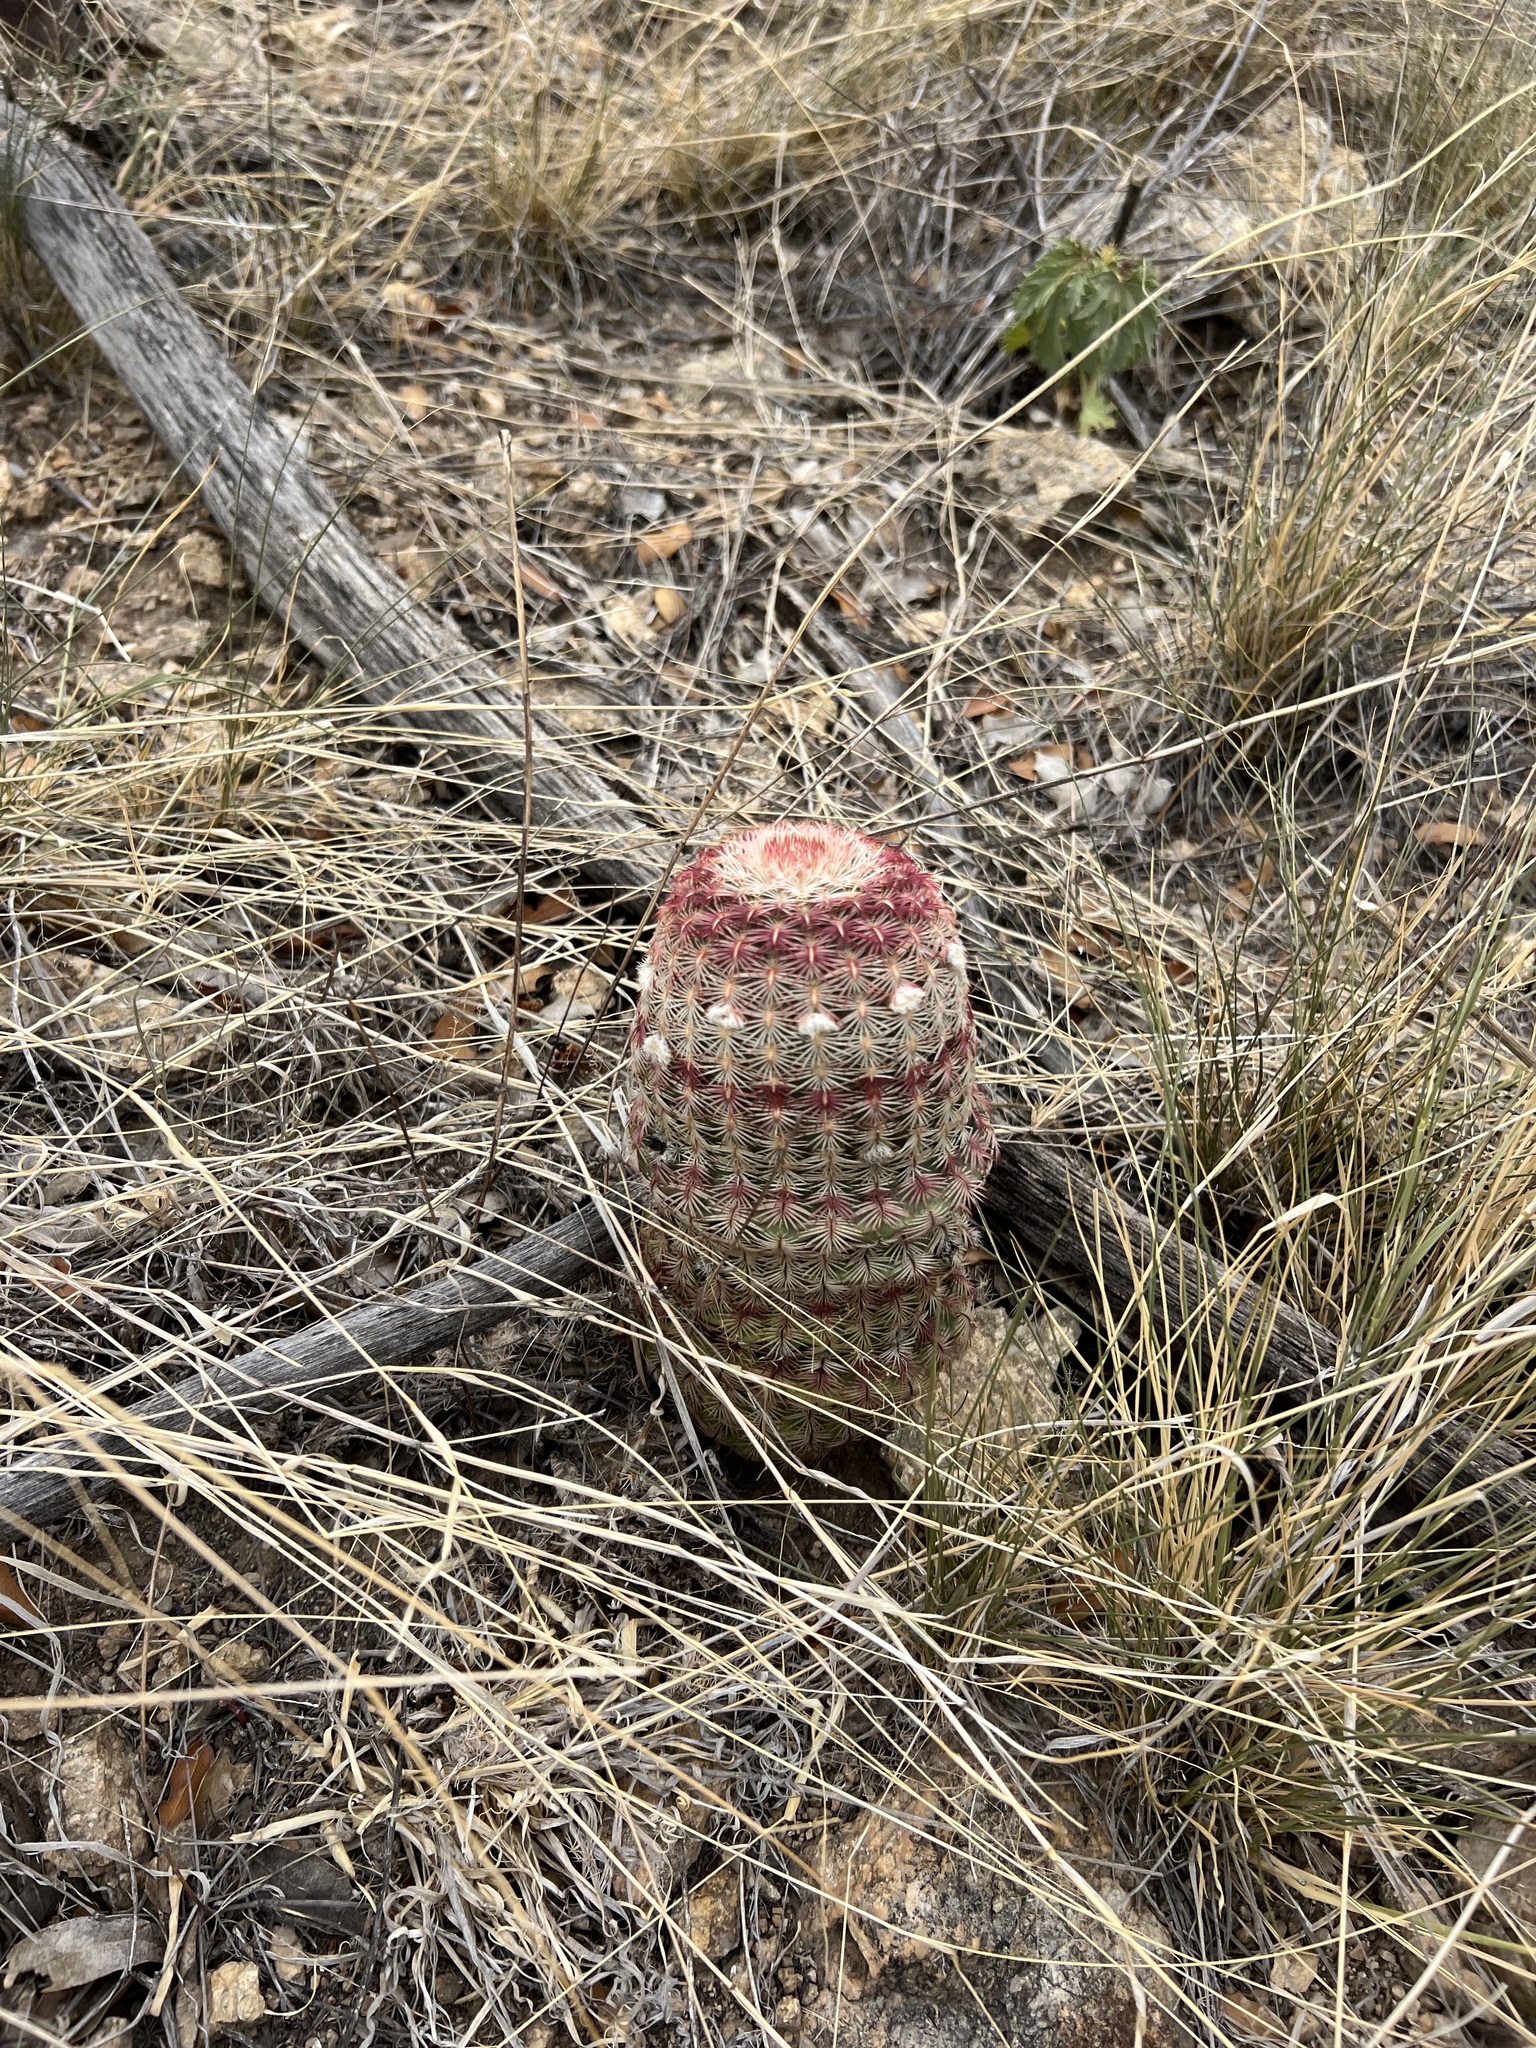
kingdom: Plantae
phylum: Tracheophyta
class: Magnoliopsida
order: Caryophyllales
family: Cactaceae
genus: Echinocereus
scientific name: Echinocereus rigidissimus
